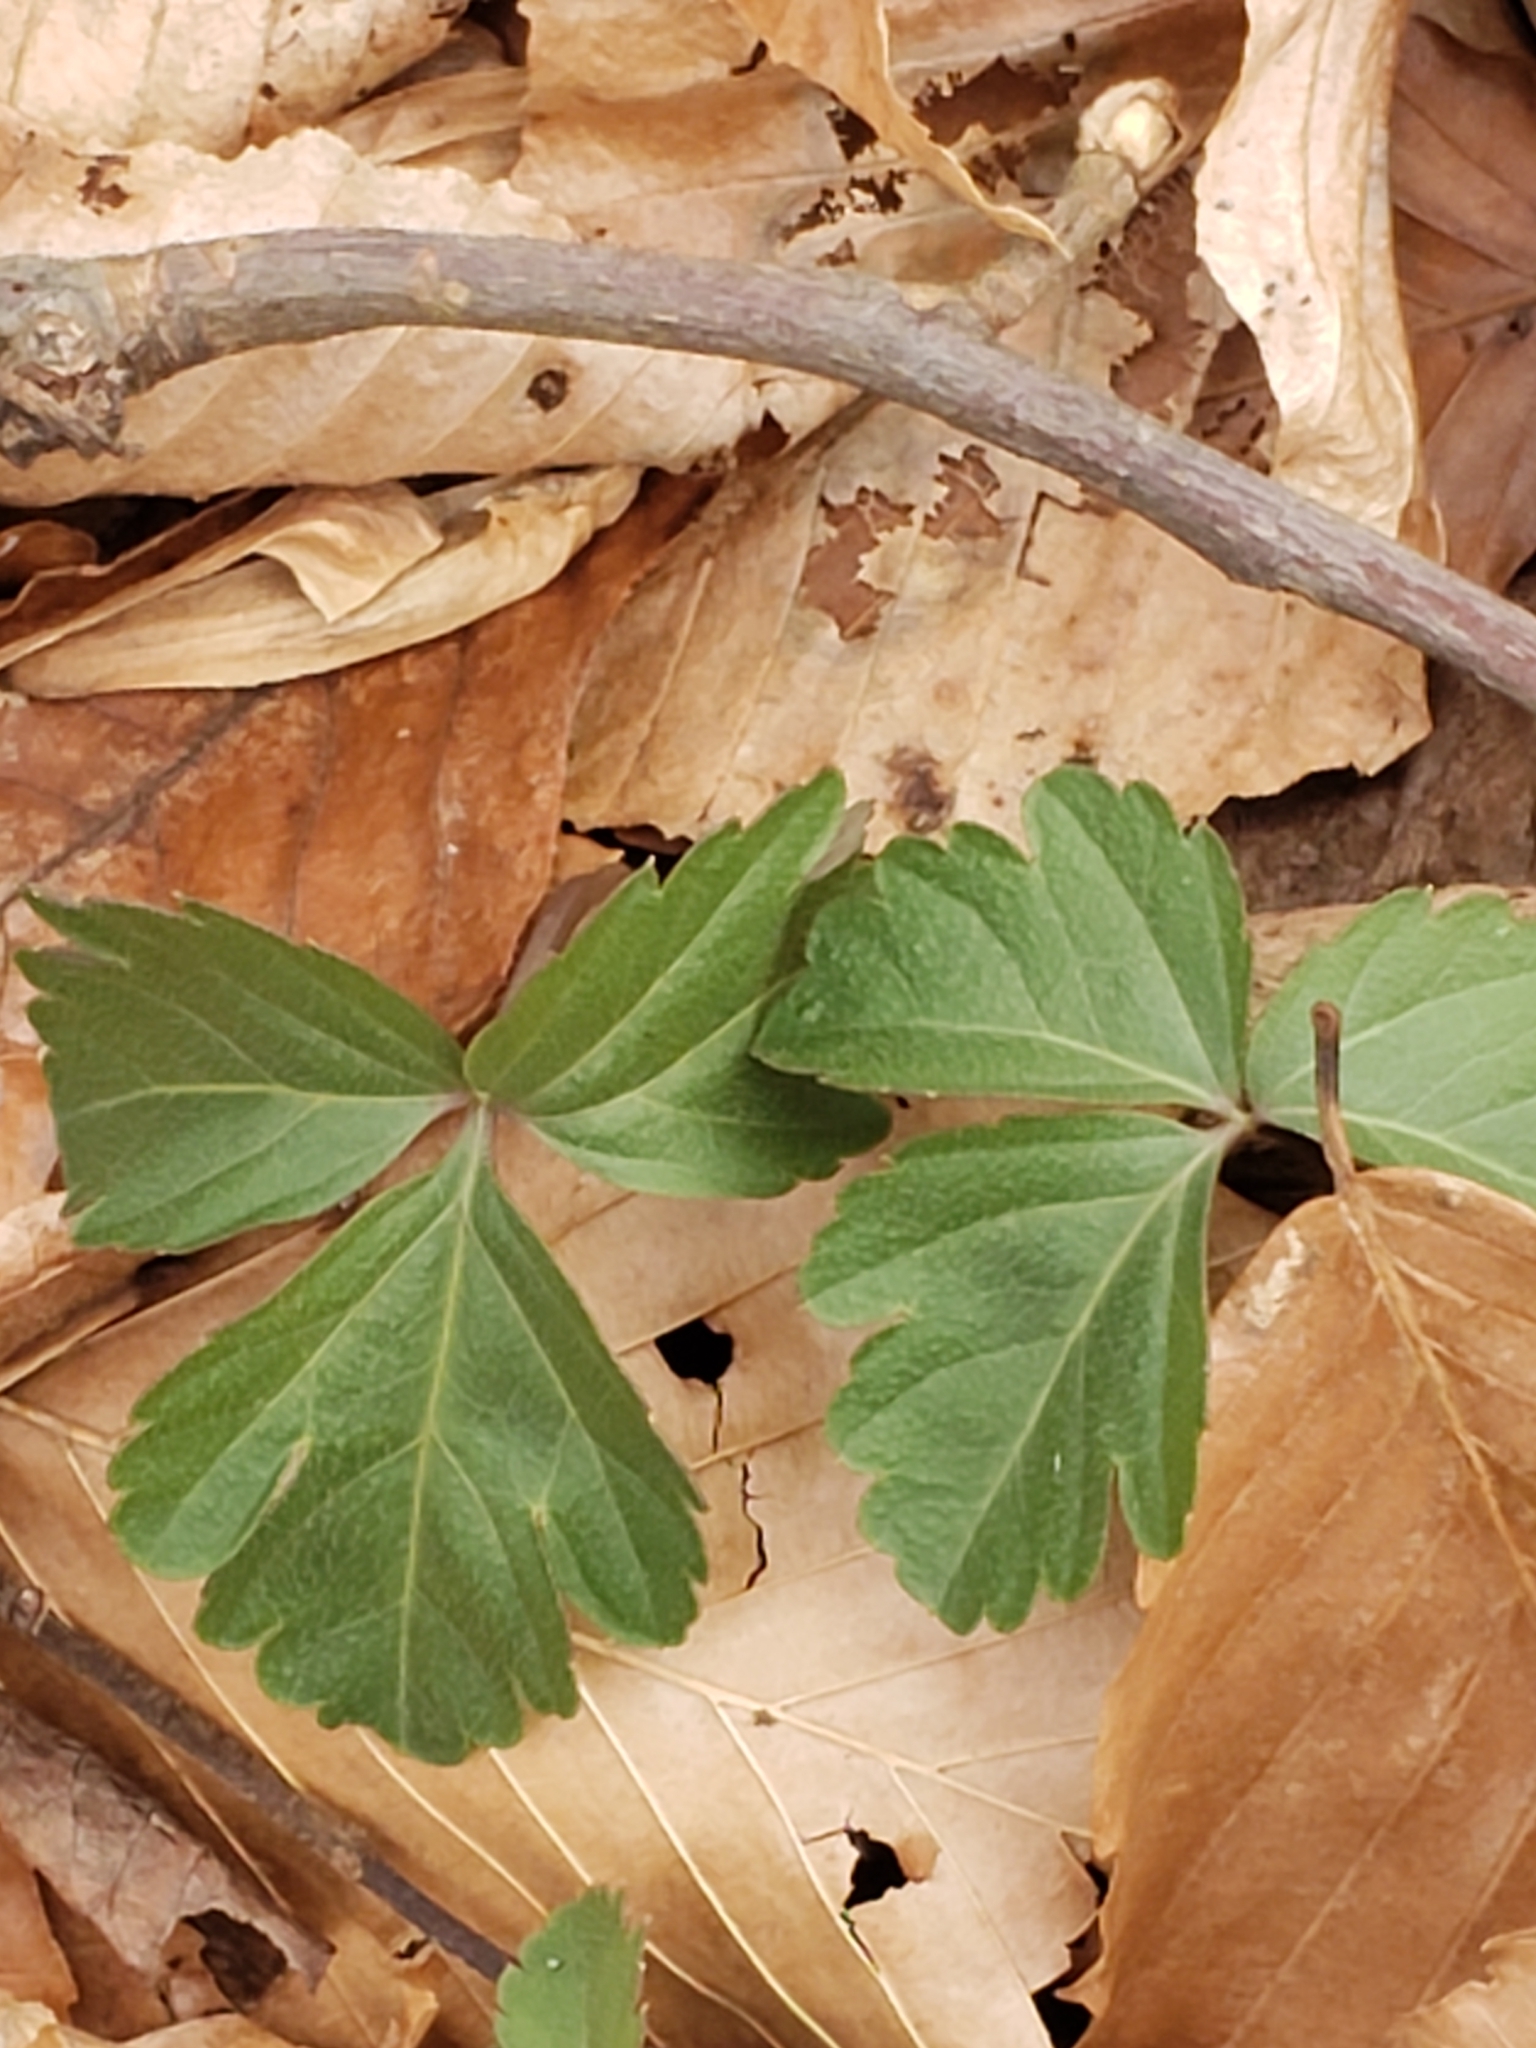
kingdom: Plantae
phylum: Tracheophyta
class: Magnoliopsida
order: Brassicales
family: Brassicaceae
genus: Cardamine
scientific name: Cardamine diphylla
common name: Broad-leaved toothwort
